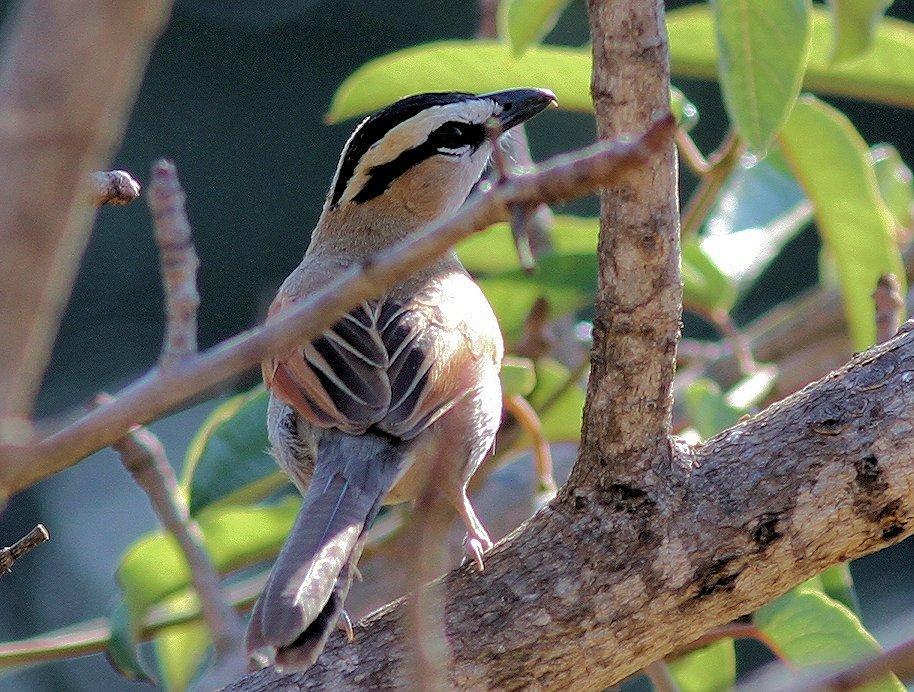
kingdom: Animalia
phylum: Chordata
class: Aves
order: Passeriformes
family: Malaconotidae
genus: Tchagra
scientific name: Tchagra senegalus
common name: Black-crowned tchagra
